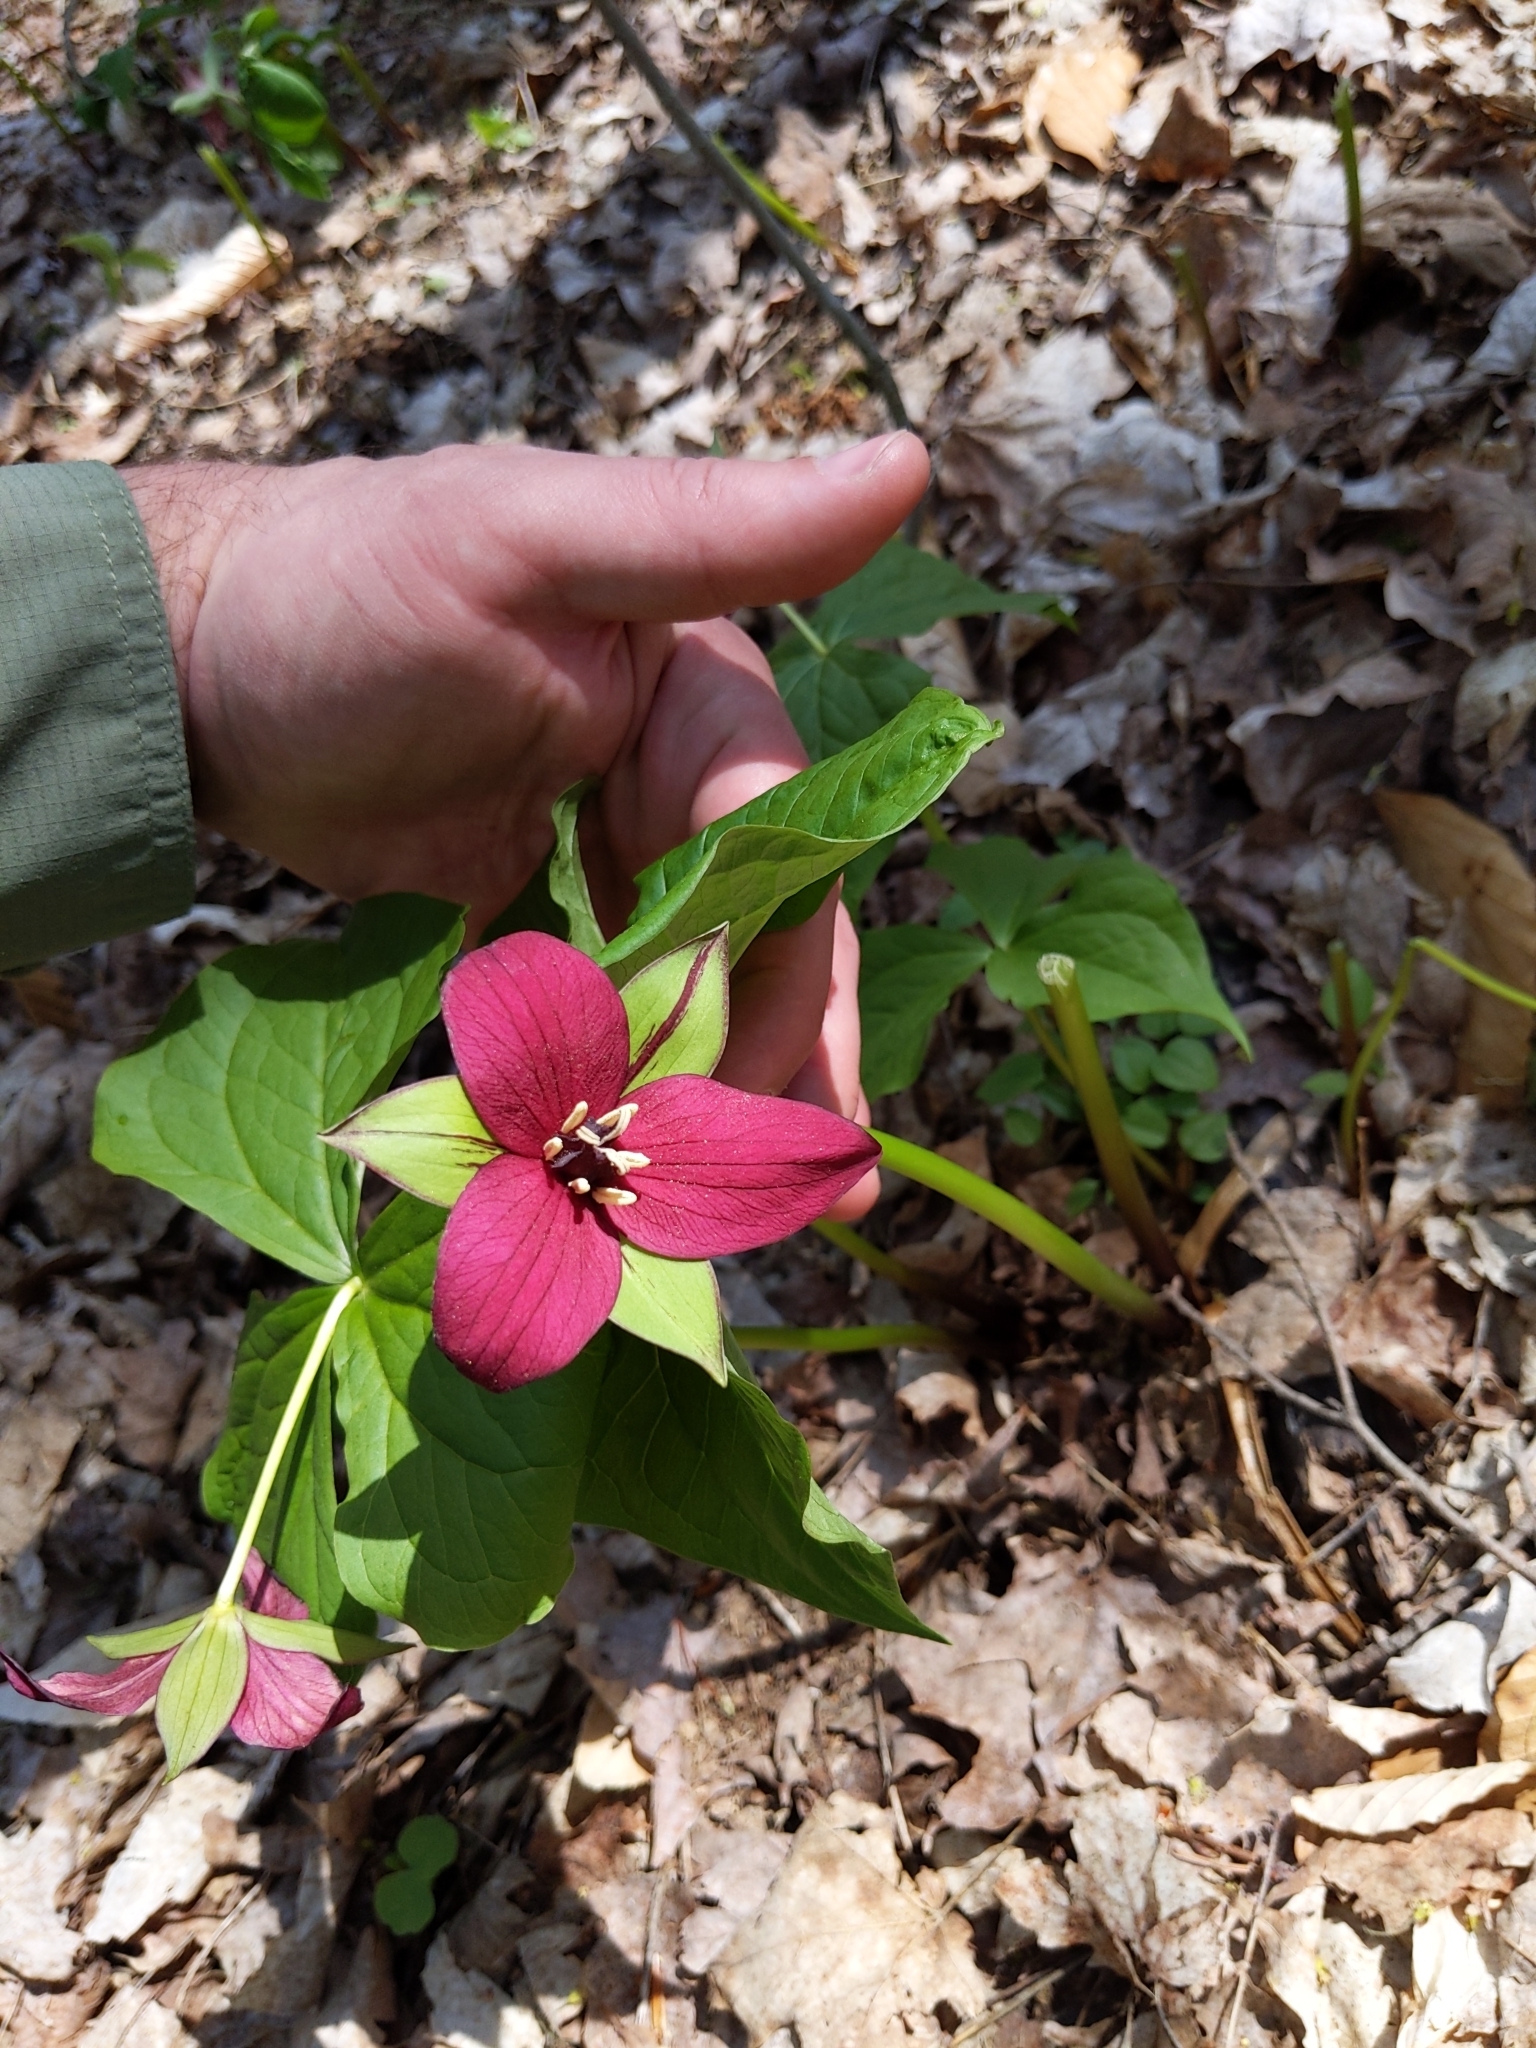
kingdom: Plantae
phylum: Tracheophyta
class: Liliopsida
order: Liliales
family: Melanthiaceae
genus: Trillium
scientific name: Trillium erectum
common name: Purple trillium
